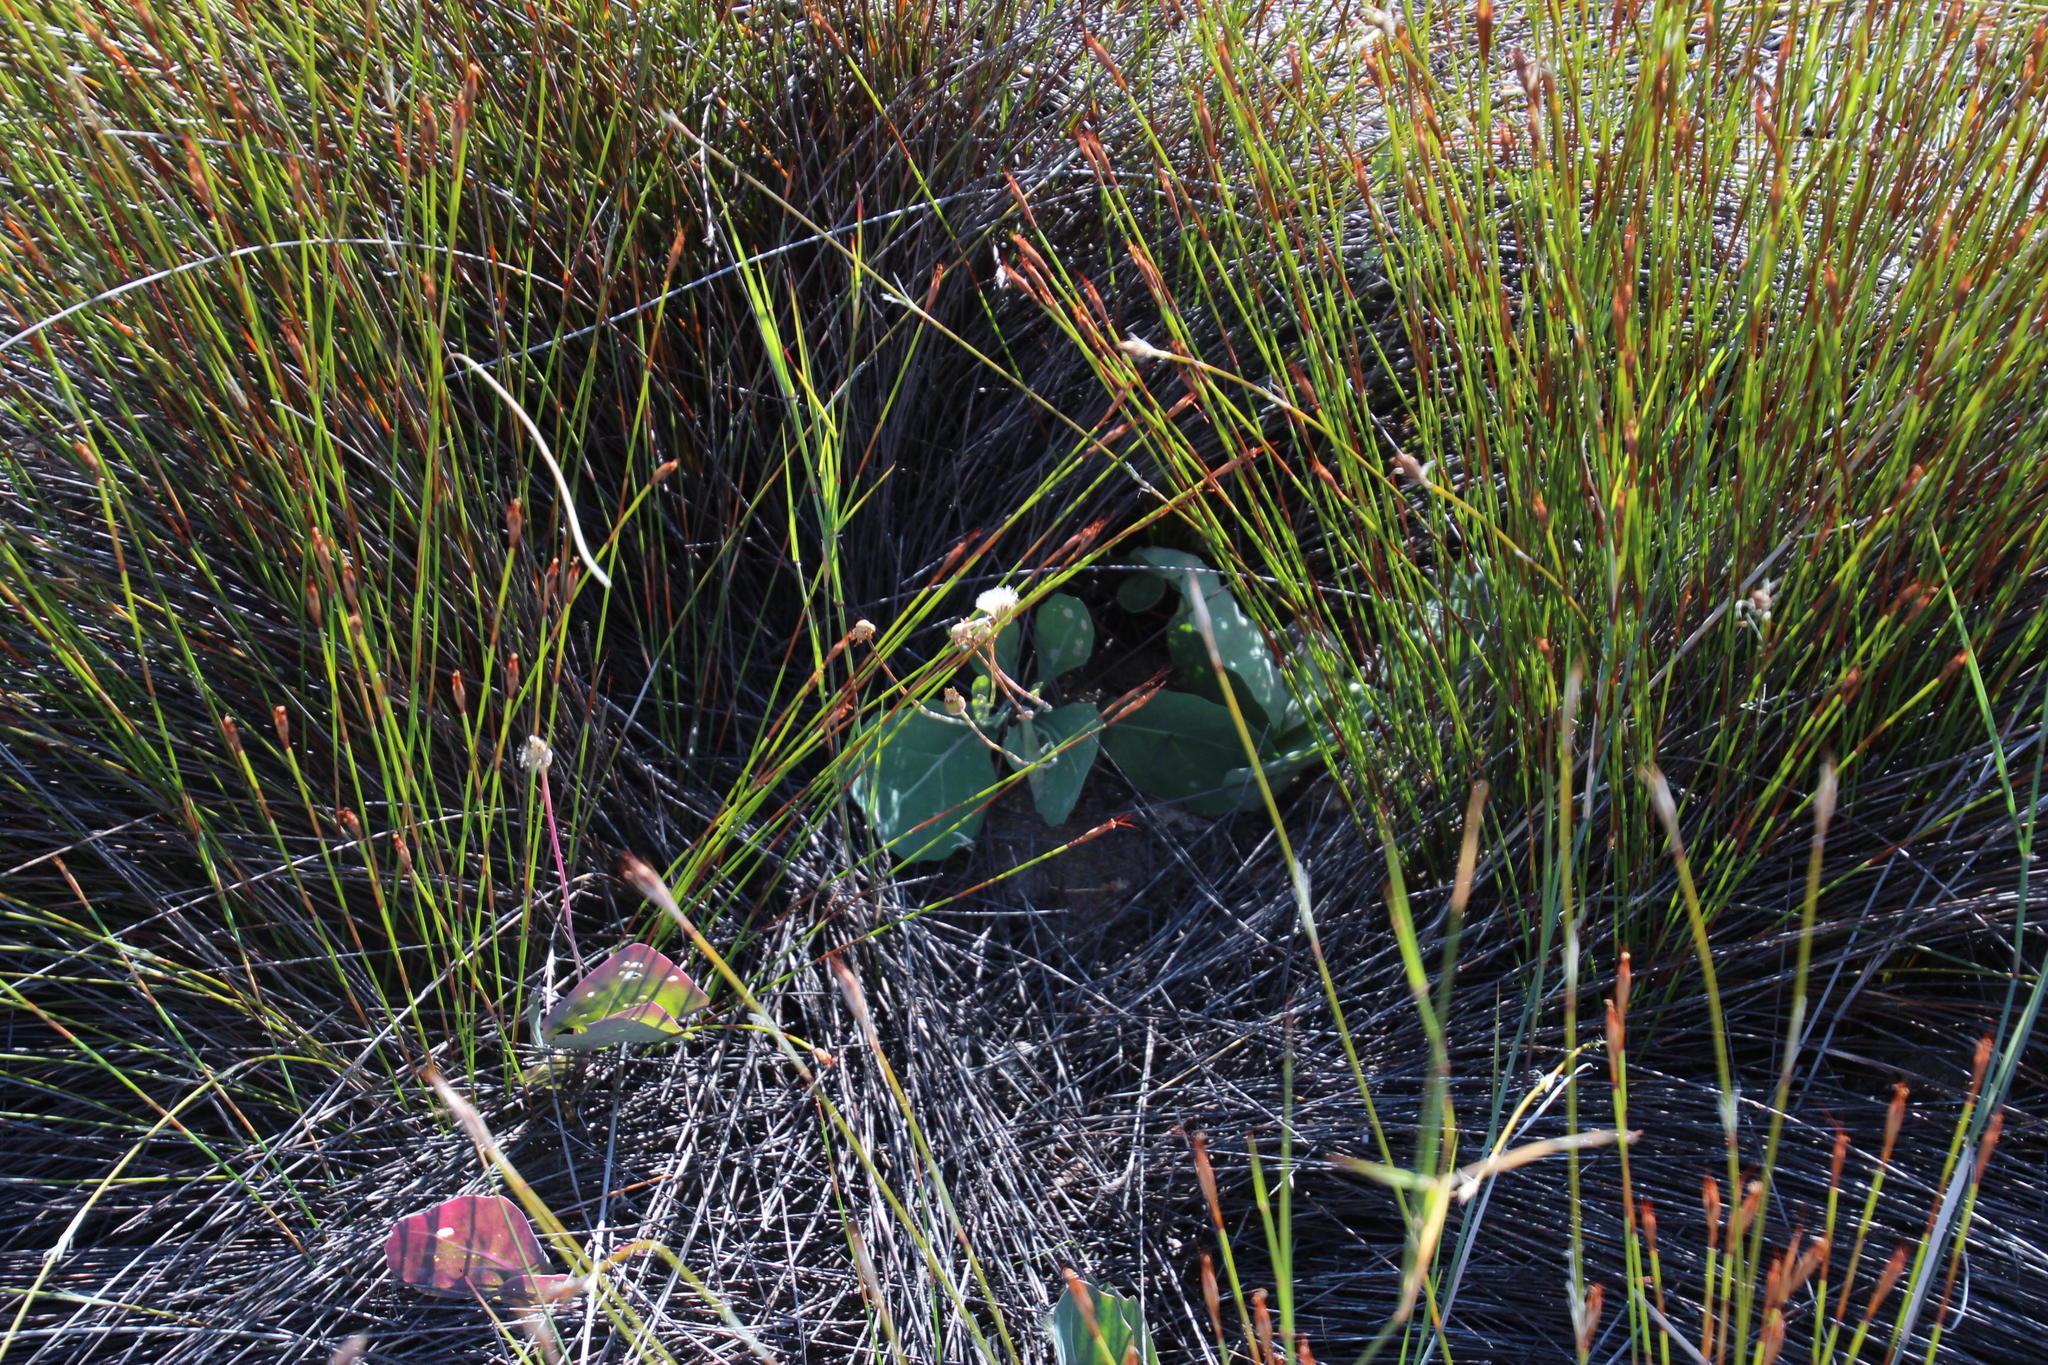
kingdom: Plantae
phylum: Tracheophyta
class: Magnoliopsida
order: Asterales
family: Asteraceae
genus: Othonna
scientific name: Othonna petiolaris
